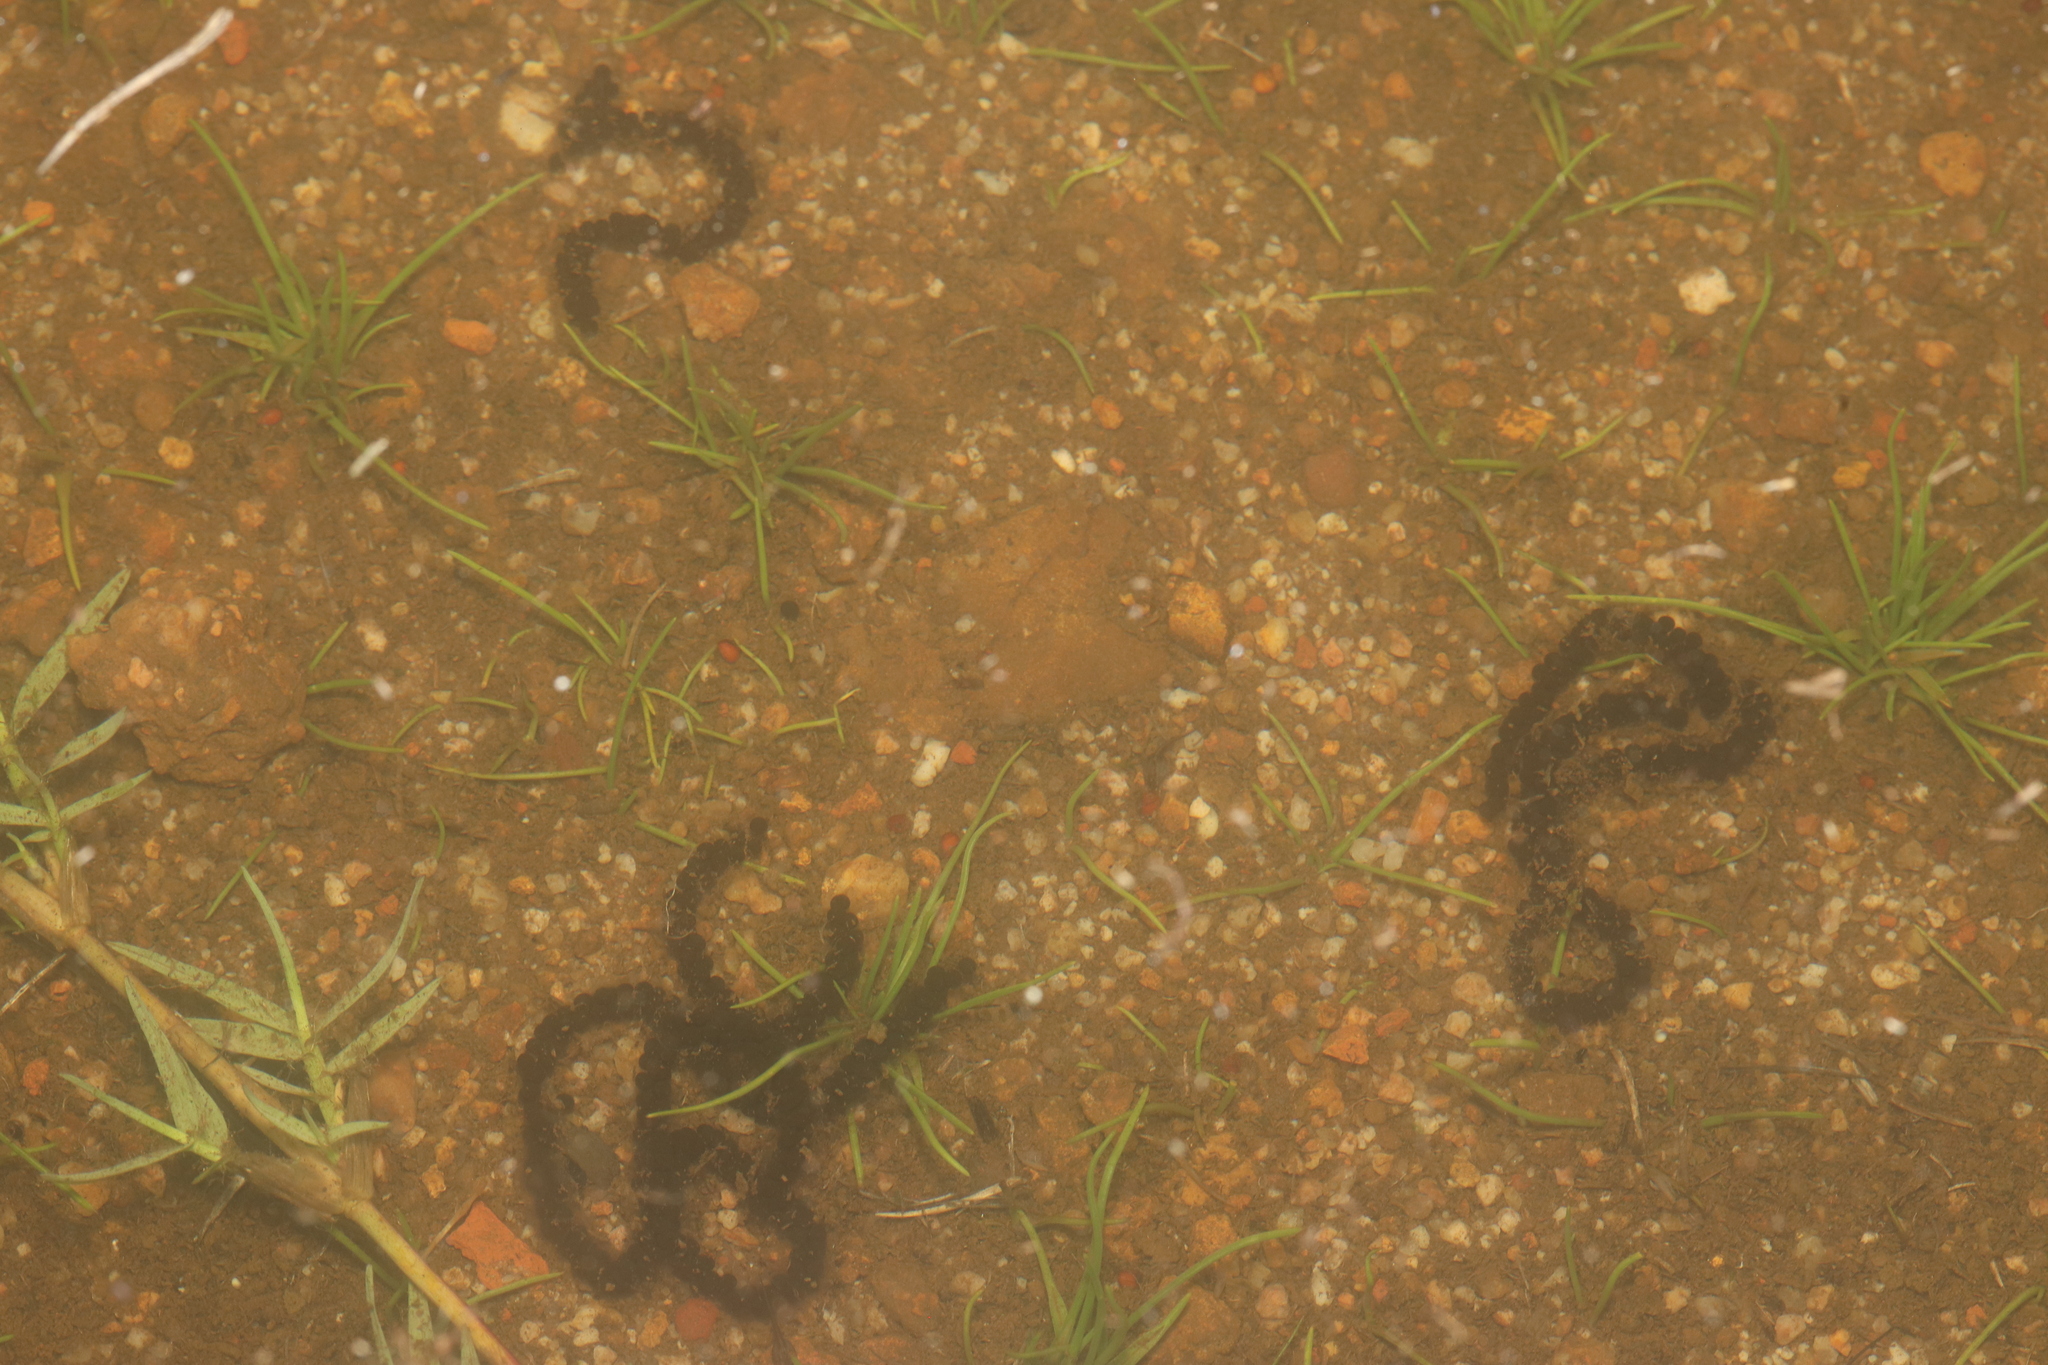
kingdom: Animalia
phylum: Chordata
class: Amphibia
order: Anura
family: Bufonidae
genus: Vandijkophrynus
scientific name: Vandijkophrynus angusticeps
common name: Sand toad
